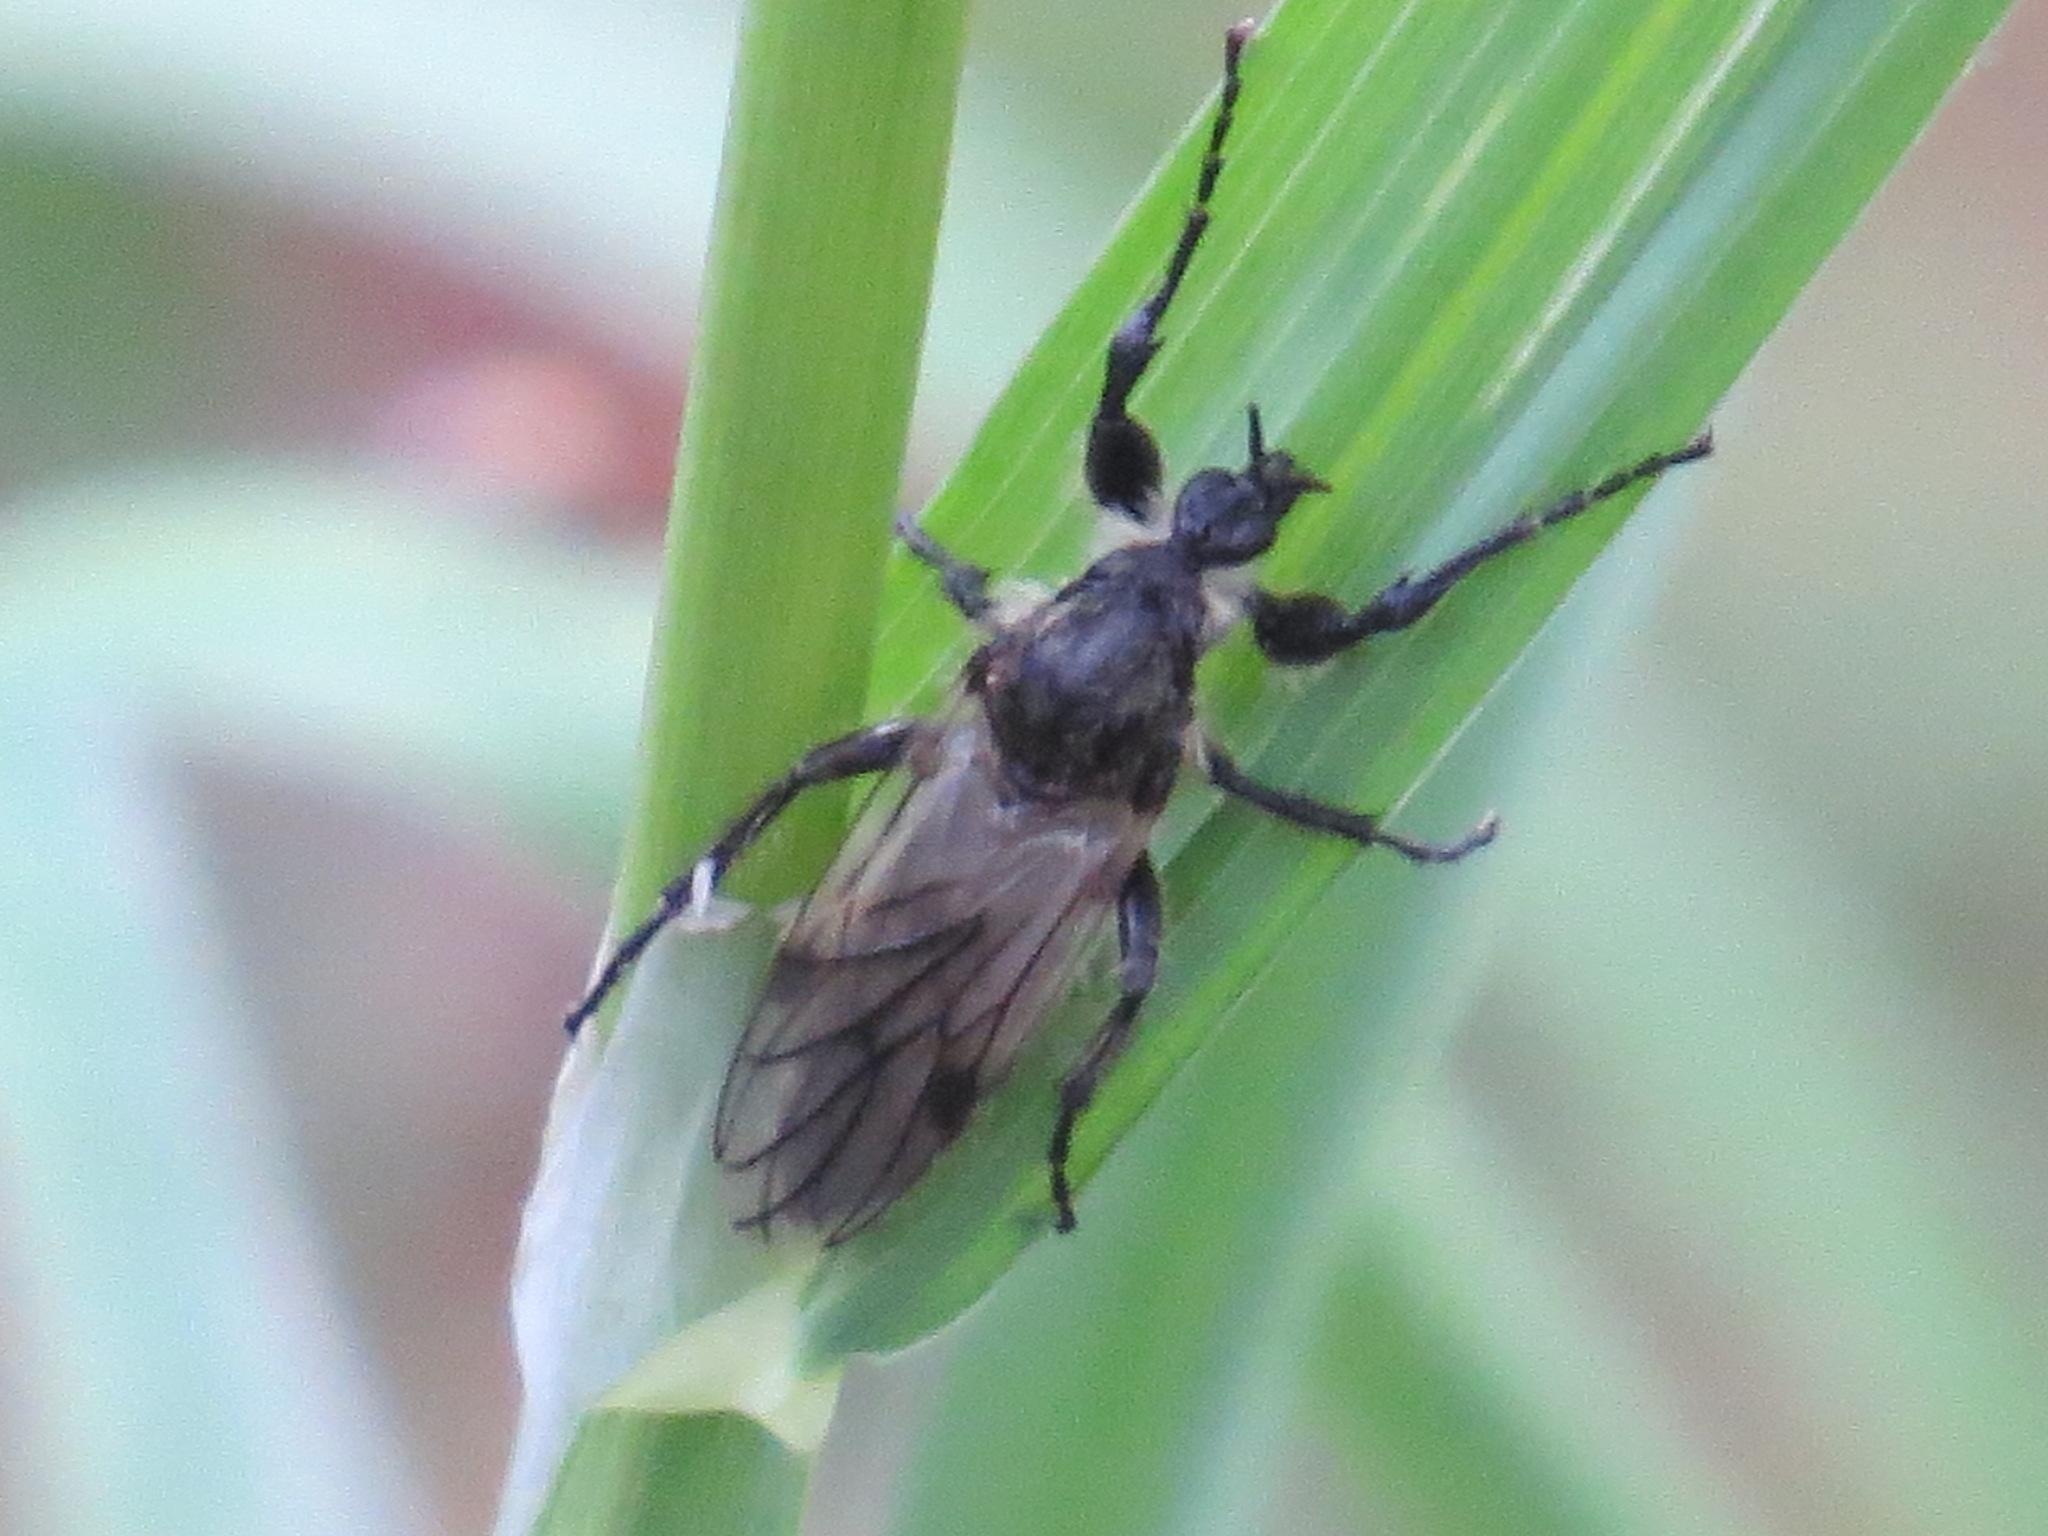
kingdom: Animalia
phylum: Arthropoda
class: Insecta
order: Diptera
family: Bibionidae
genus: Bibio
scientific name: Bibio albipennis
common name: White-winged march fly
